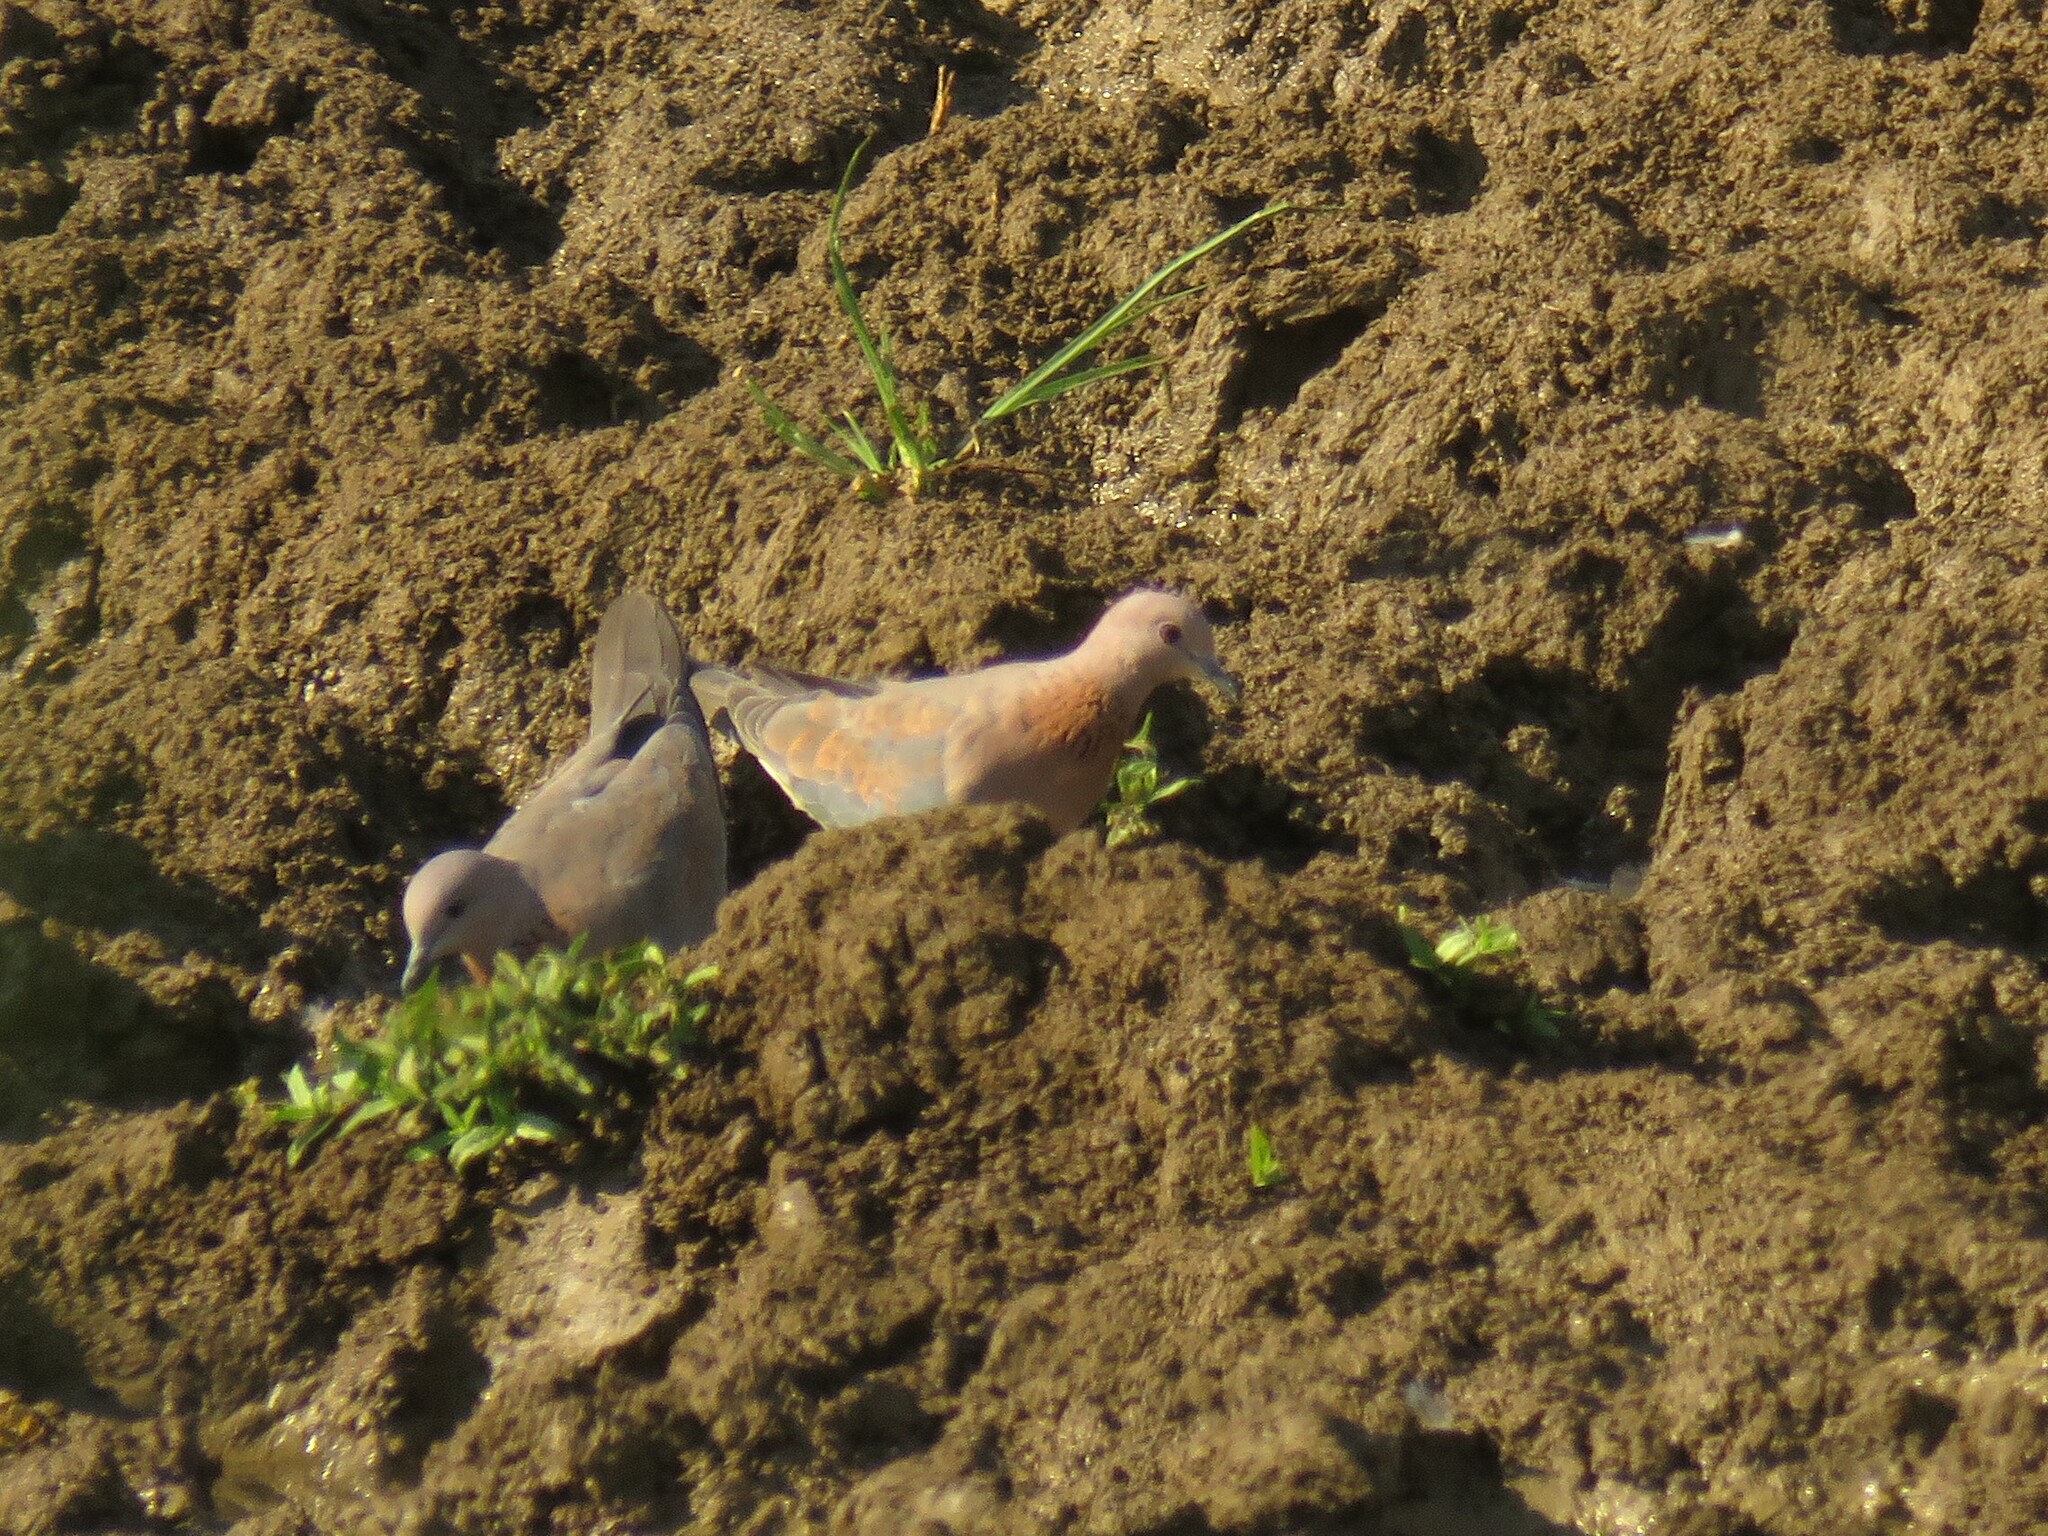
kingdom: Animalia
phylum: Chordata
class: Aves
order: Columbiformes
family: Columbidae
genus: Spilopelia
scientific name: Spilopelia senegalensis
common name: Laughing dove
